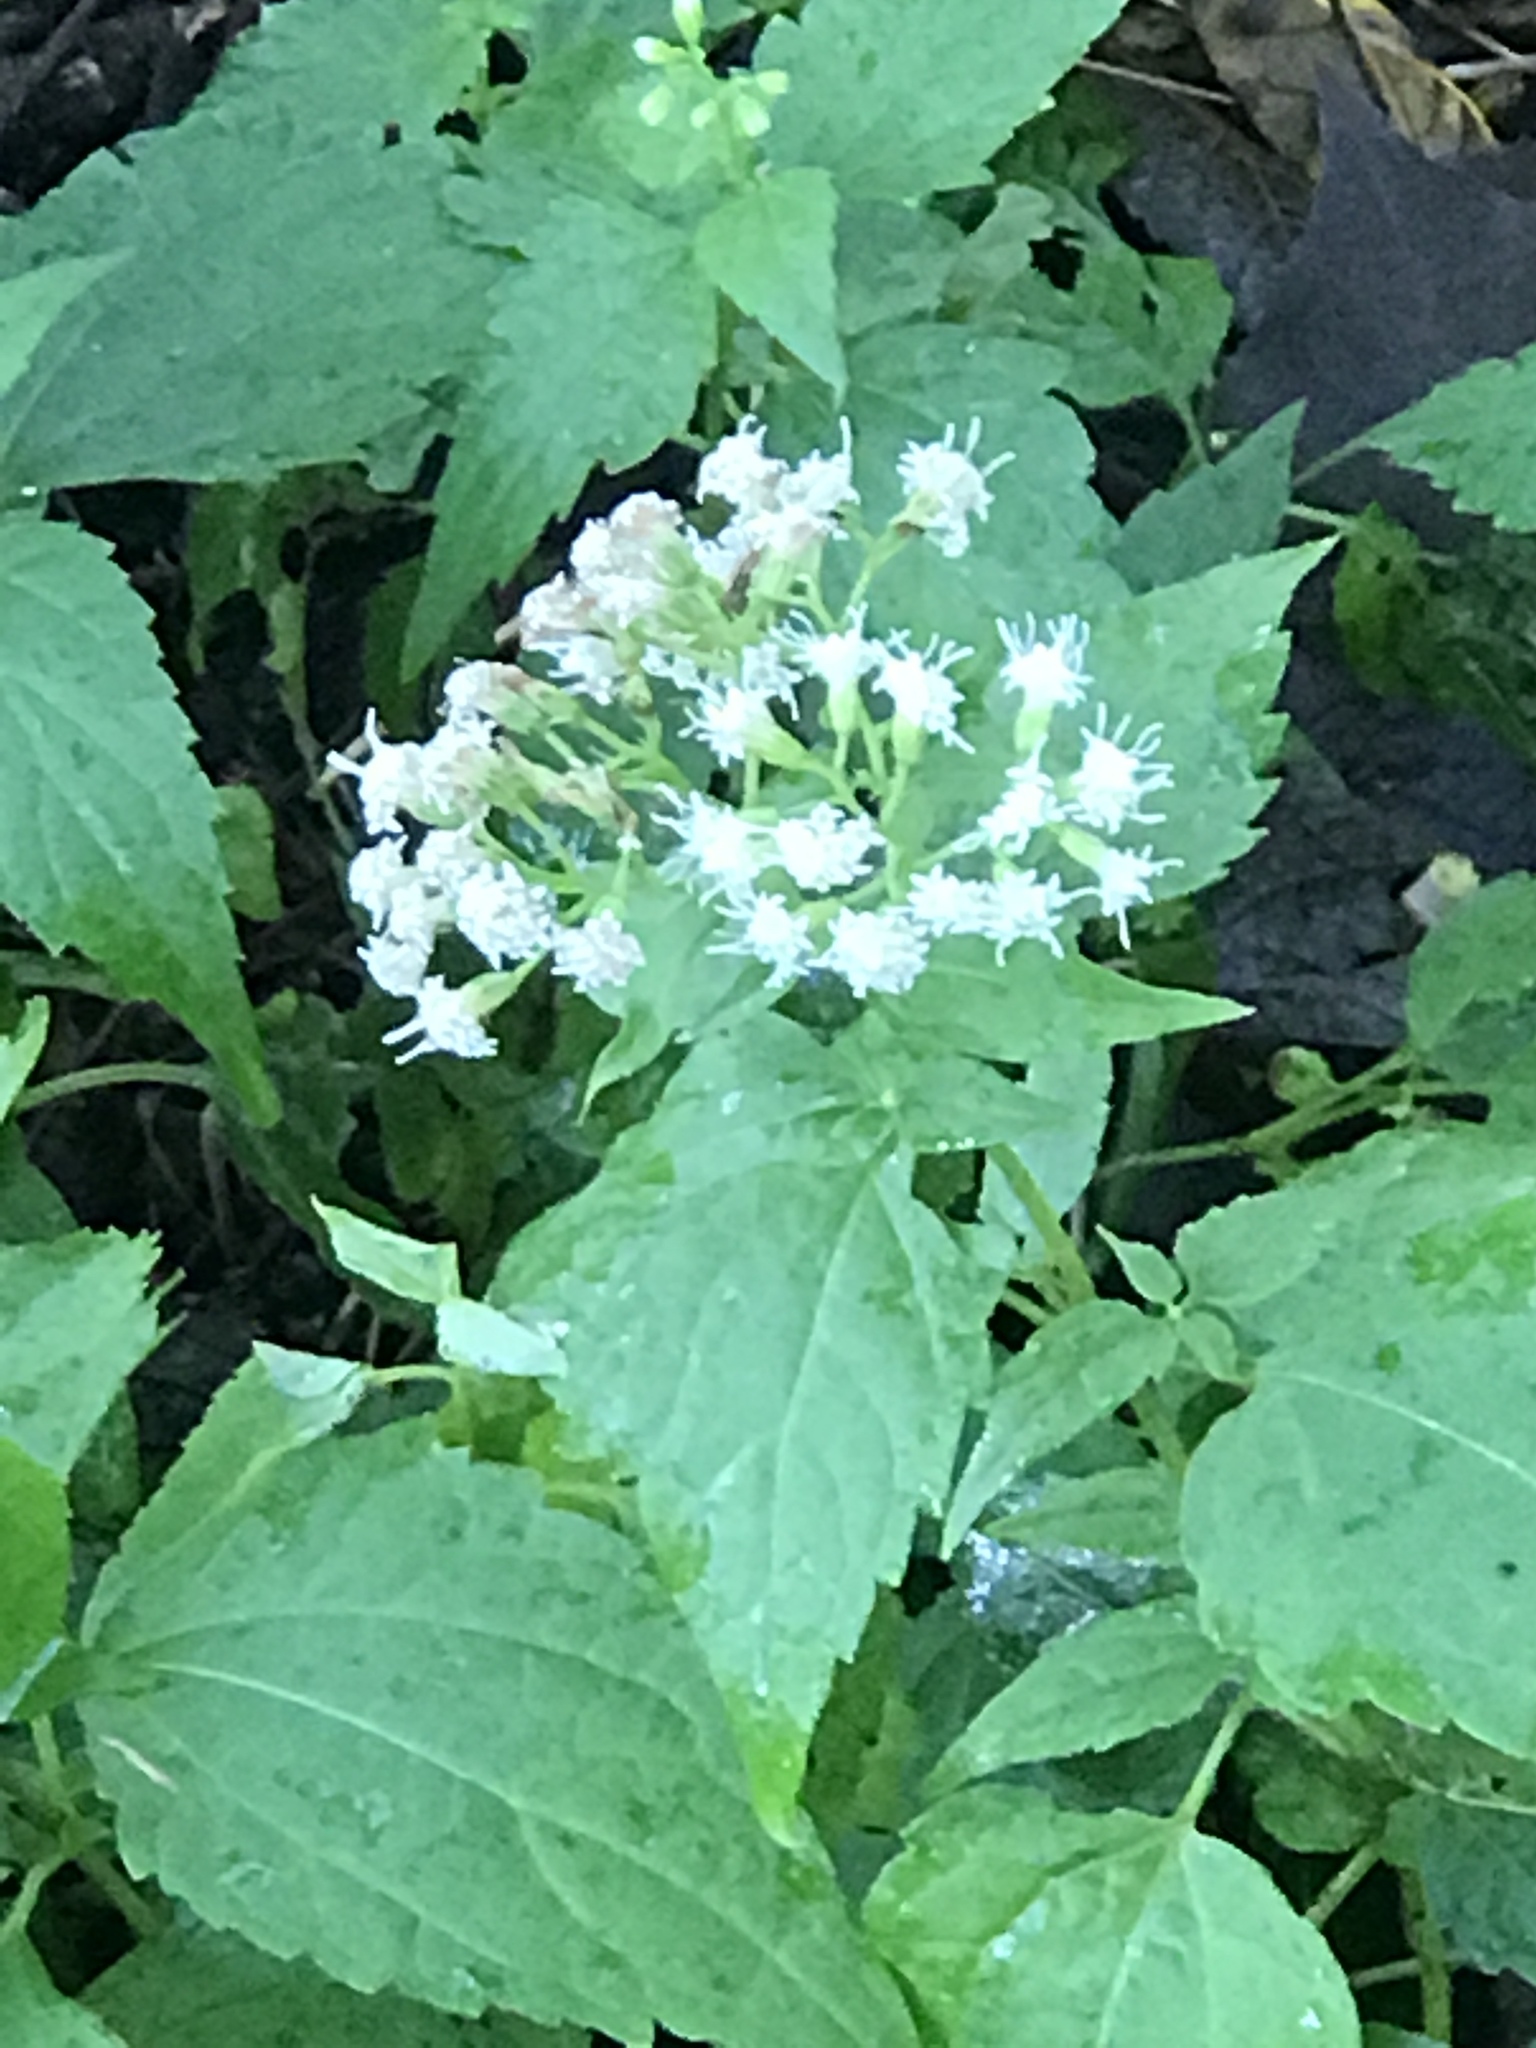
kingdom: Plantae
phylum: Tracheophyta
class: Magnoliopsida
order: Asterales
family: Asteraceae
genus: Ageratina
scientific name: Ageratina altissima
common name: White snakeroot
